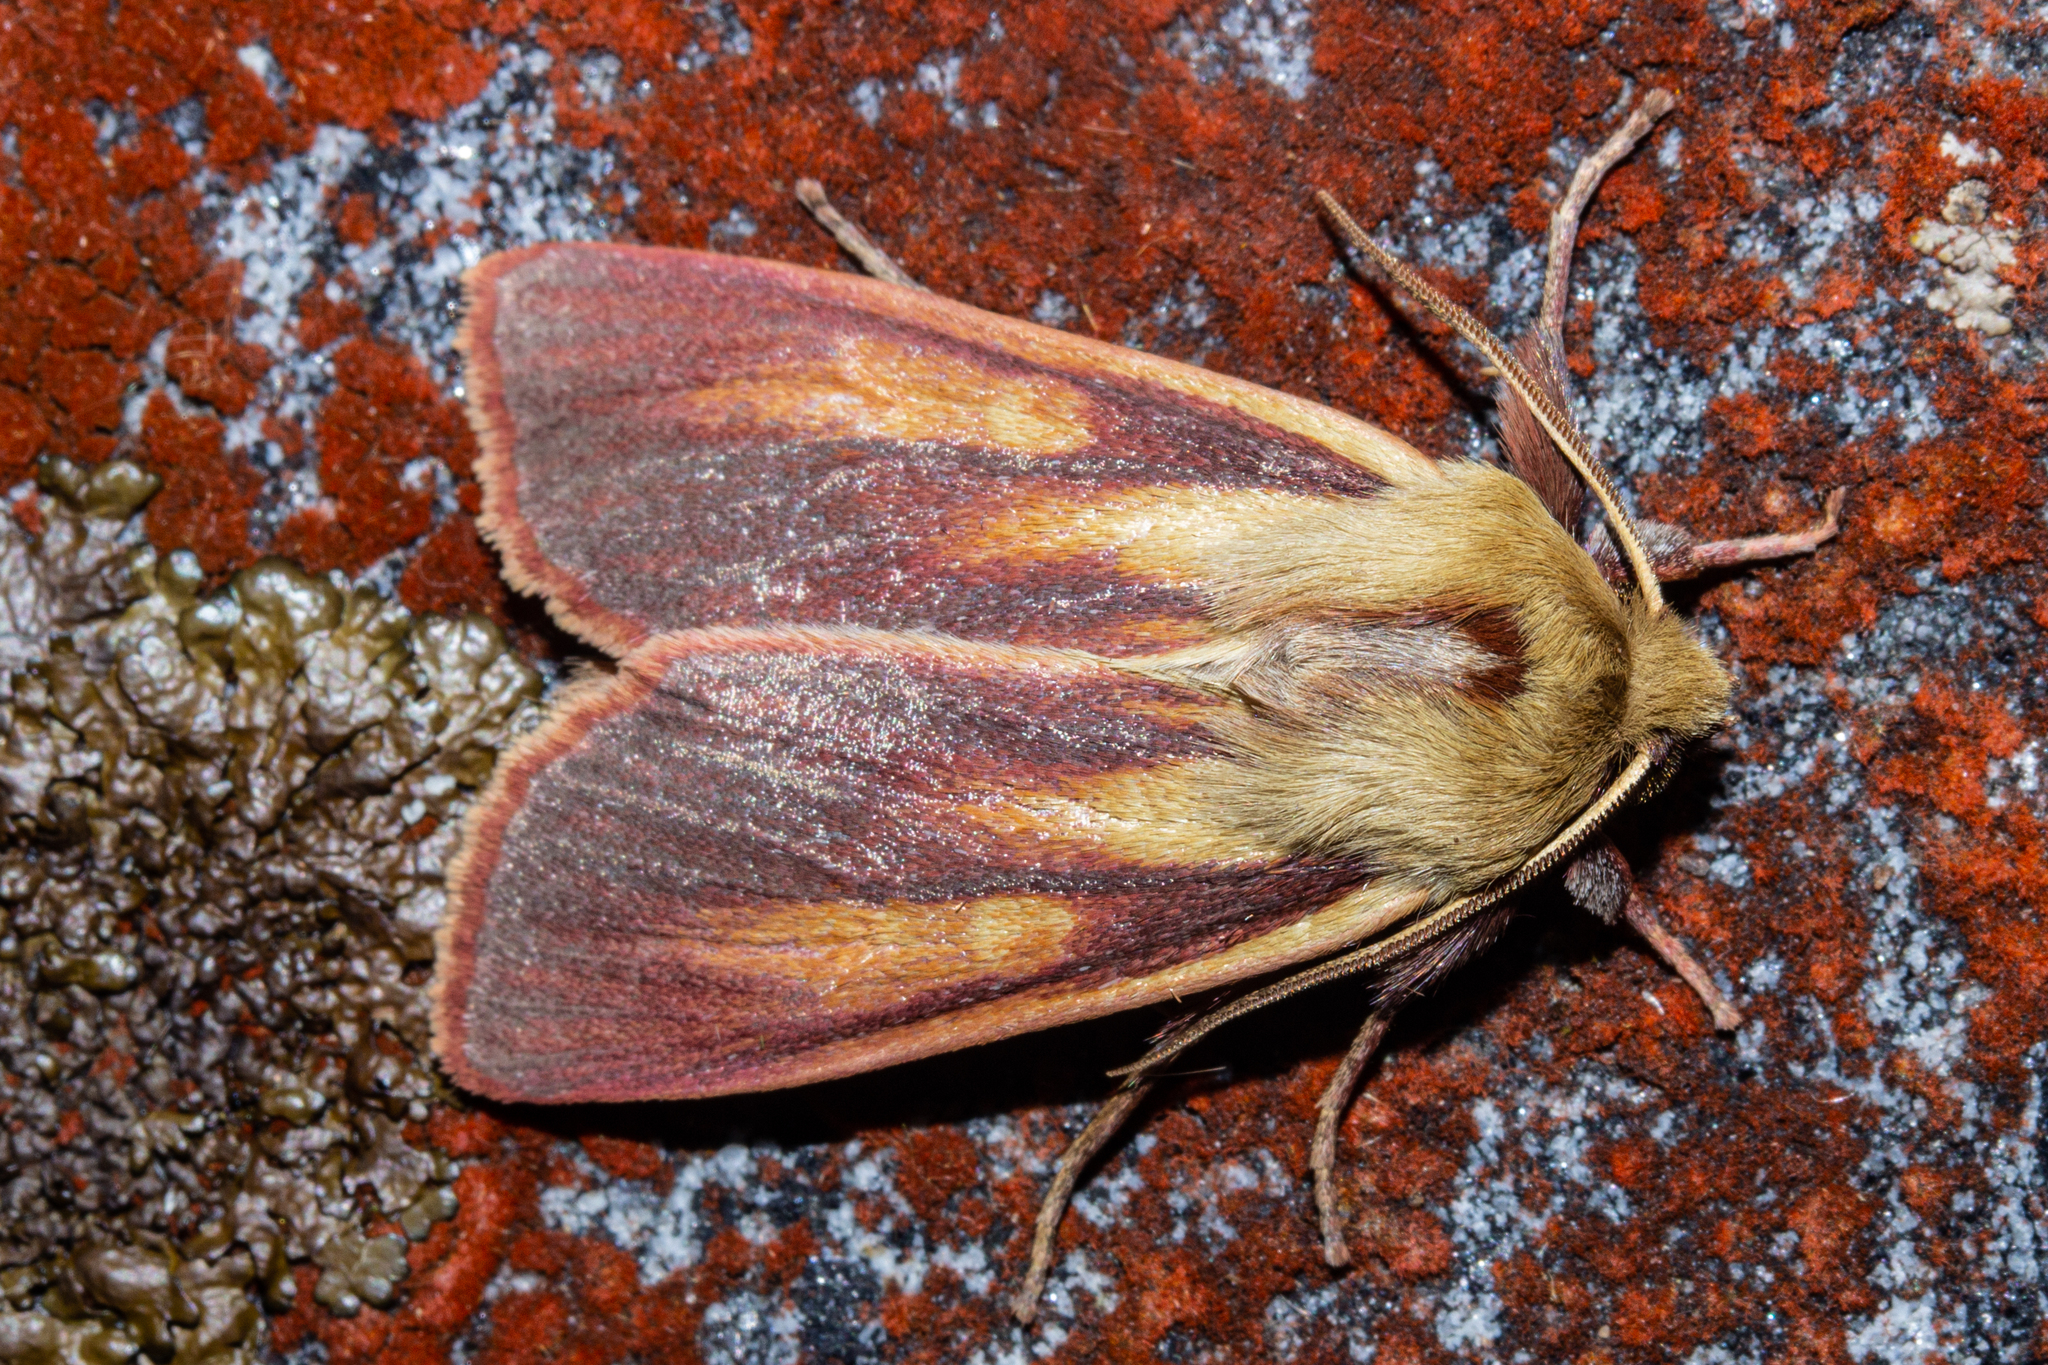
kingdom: Animalia
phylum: Arthropoda
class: Insecta
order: Lepidoptera
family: Noctuidae
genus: Ichneutica
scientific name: Ichneutica
